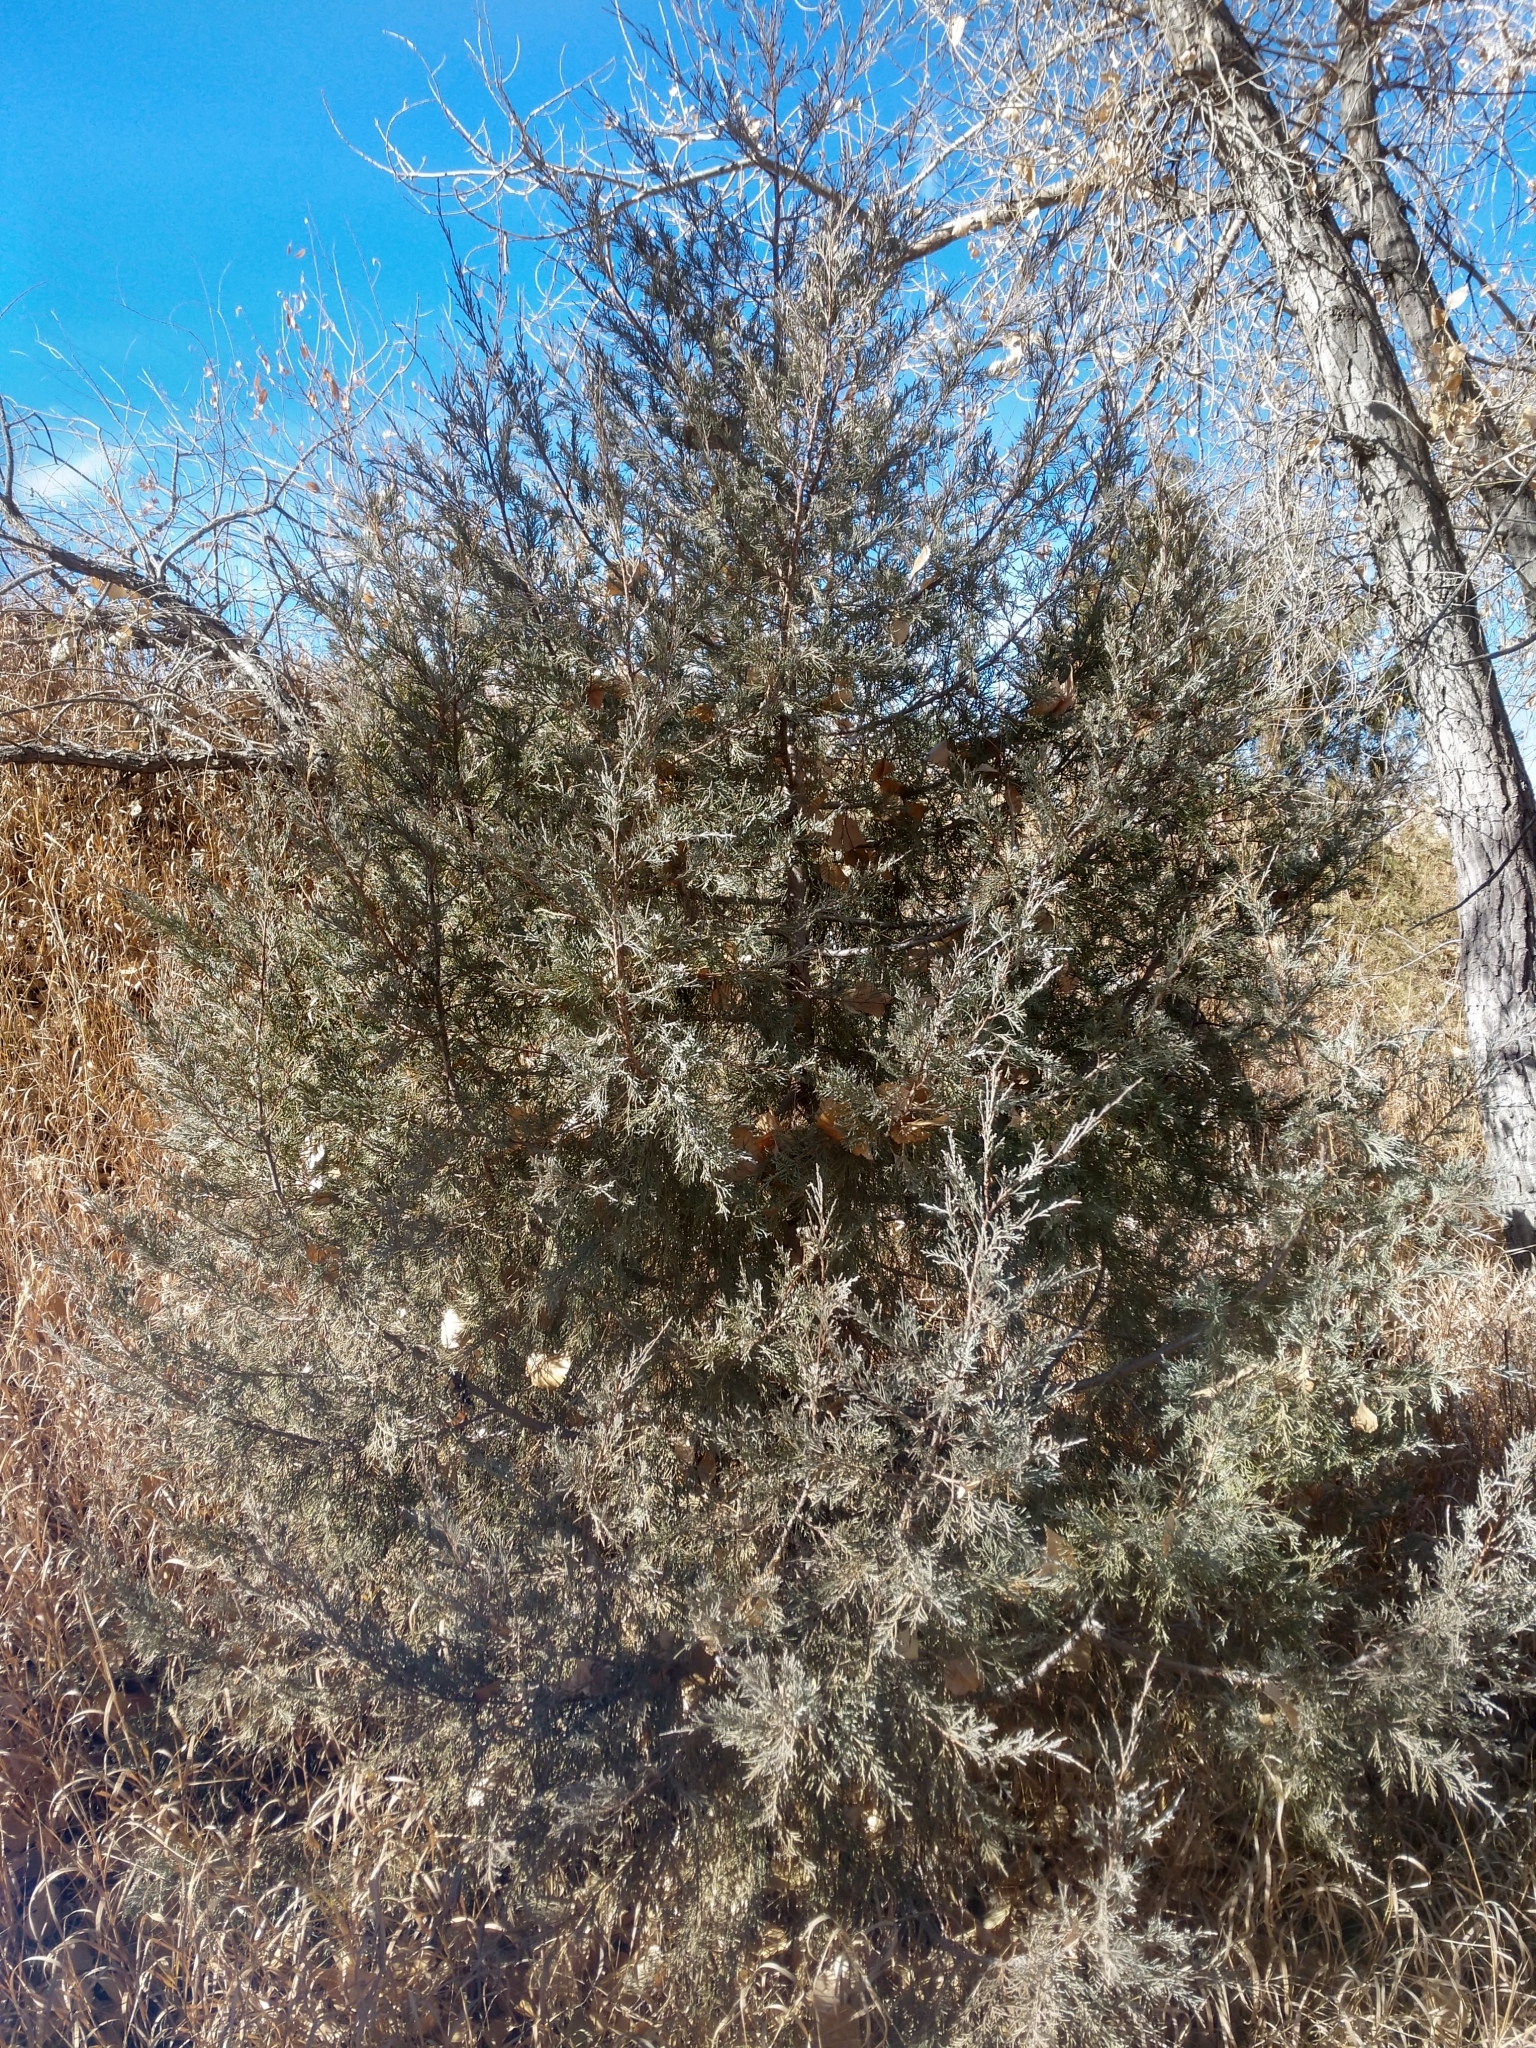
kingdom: Plantae
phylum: Tracheophyta
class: Pinopsida
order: Pinales
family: Cupressaceae
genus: Juniperus
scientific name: Juniperus scopulorum
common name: Rocky mountain juniper
